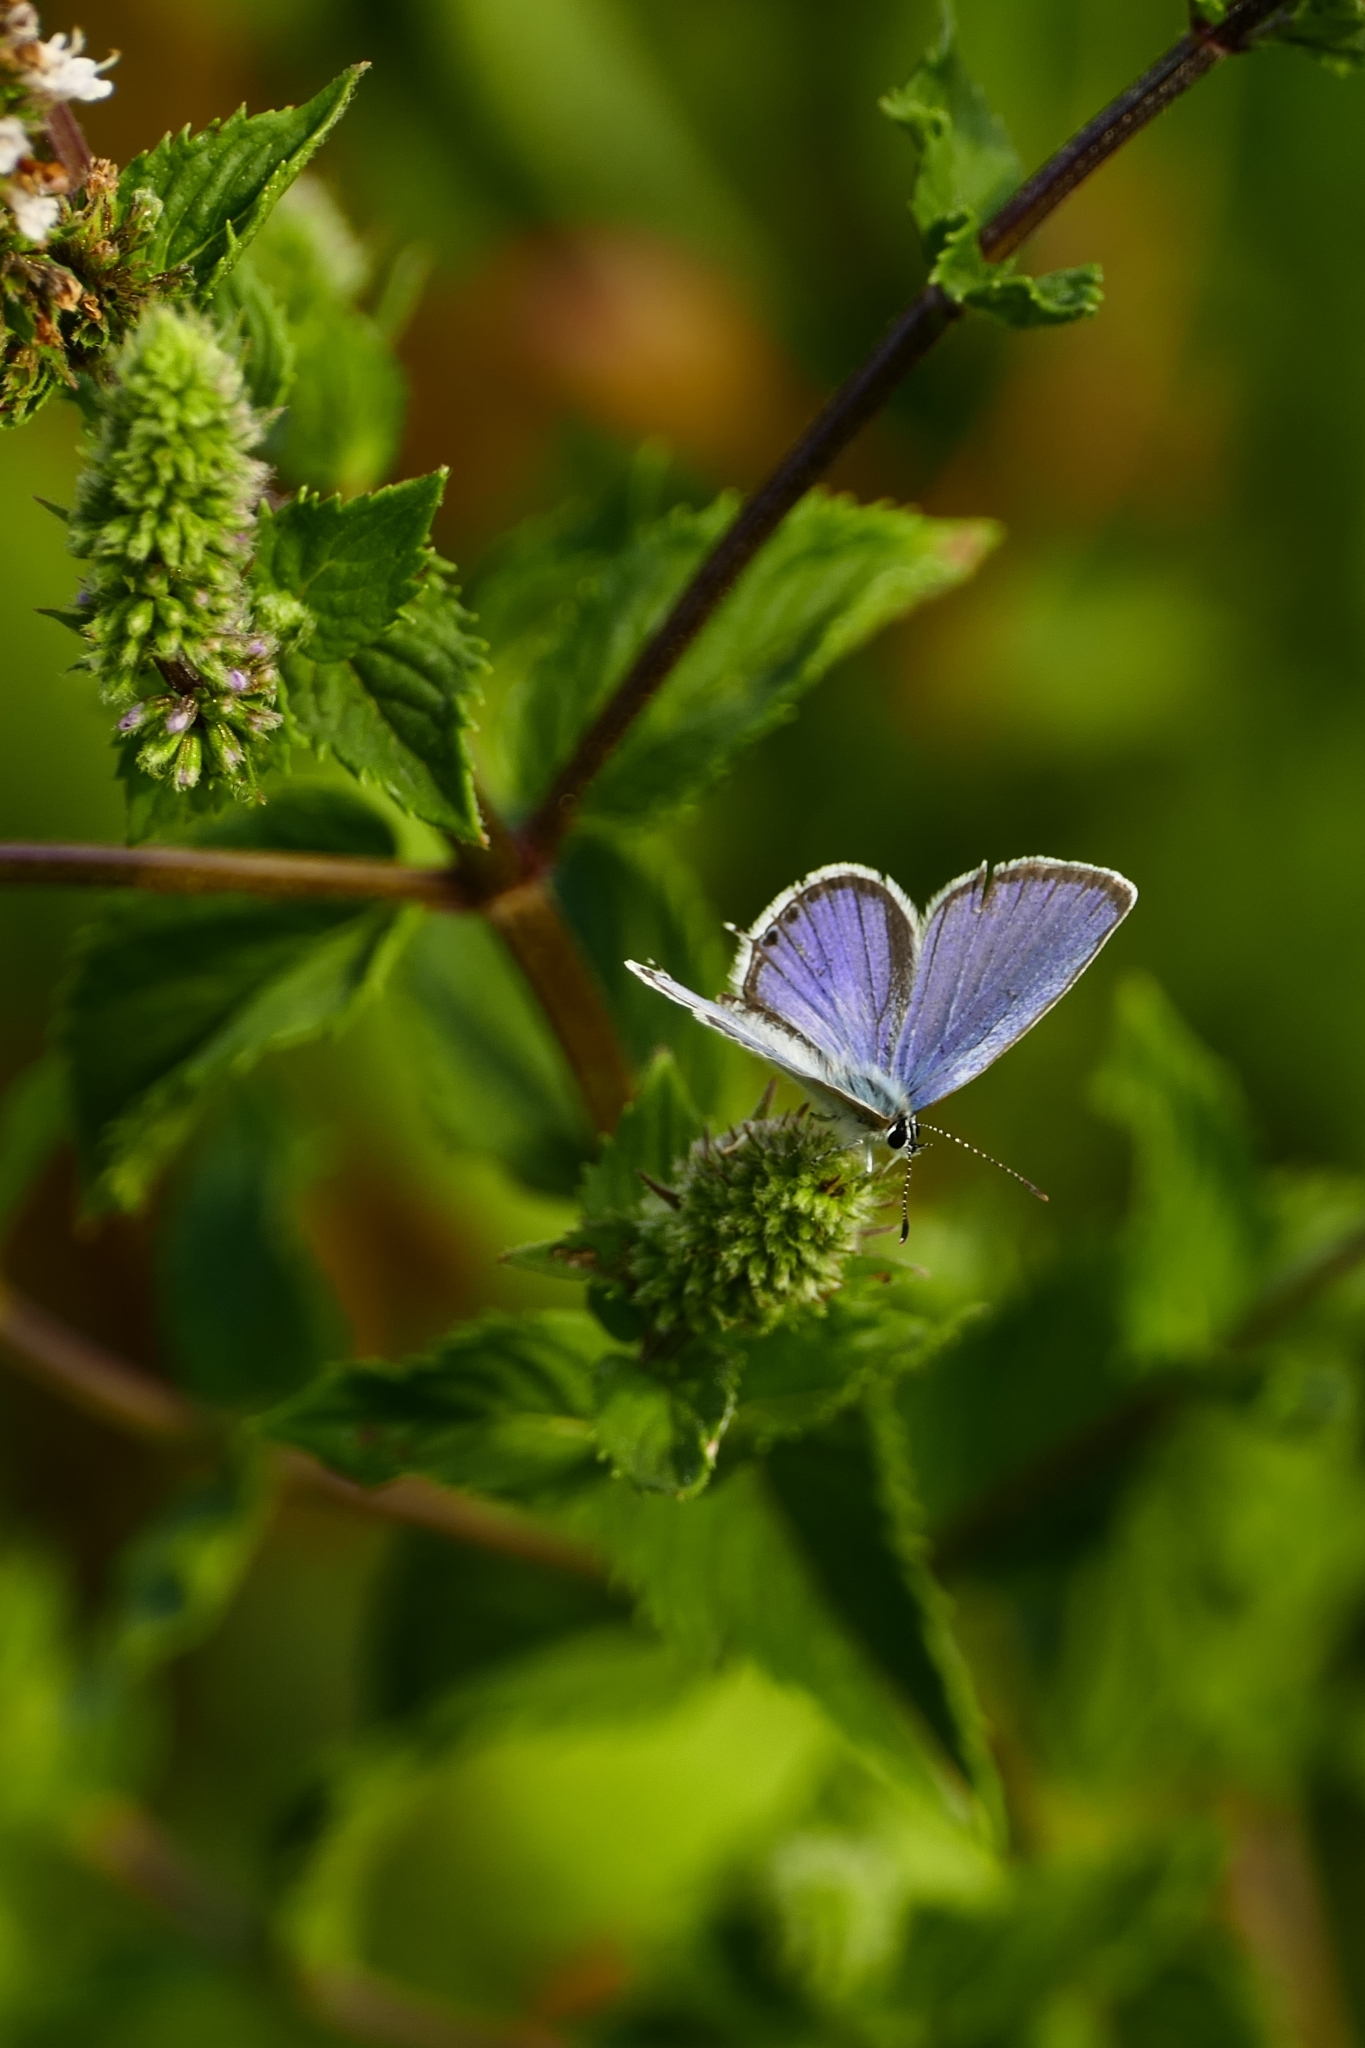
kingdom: Animalia
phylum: Arthropoda
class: Insecta
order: Lepidoptera
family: Lycaenidae
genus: Elkalyce
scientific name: Elkalyce argiades
